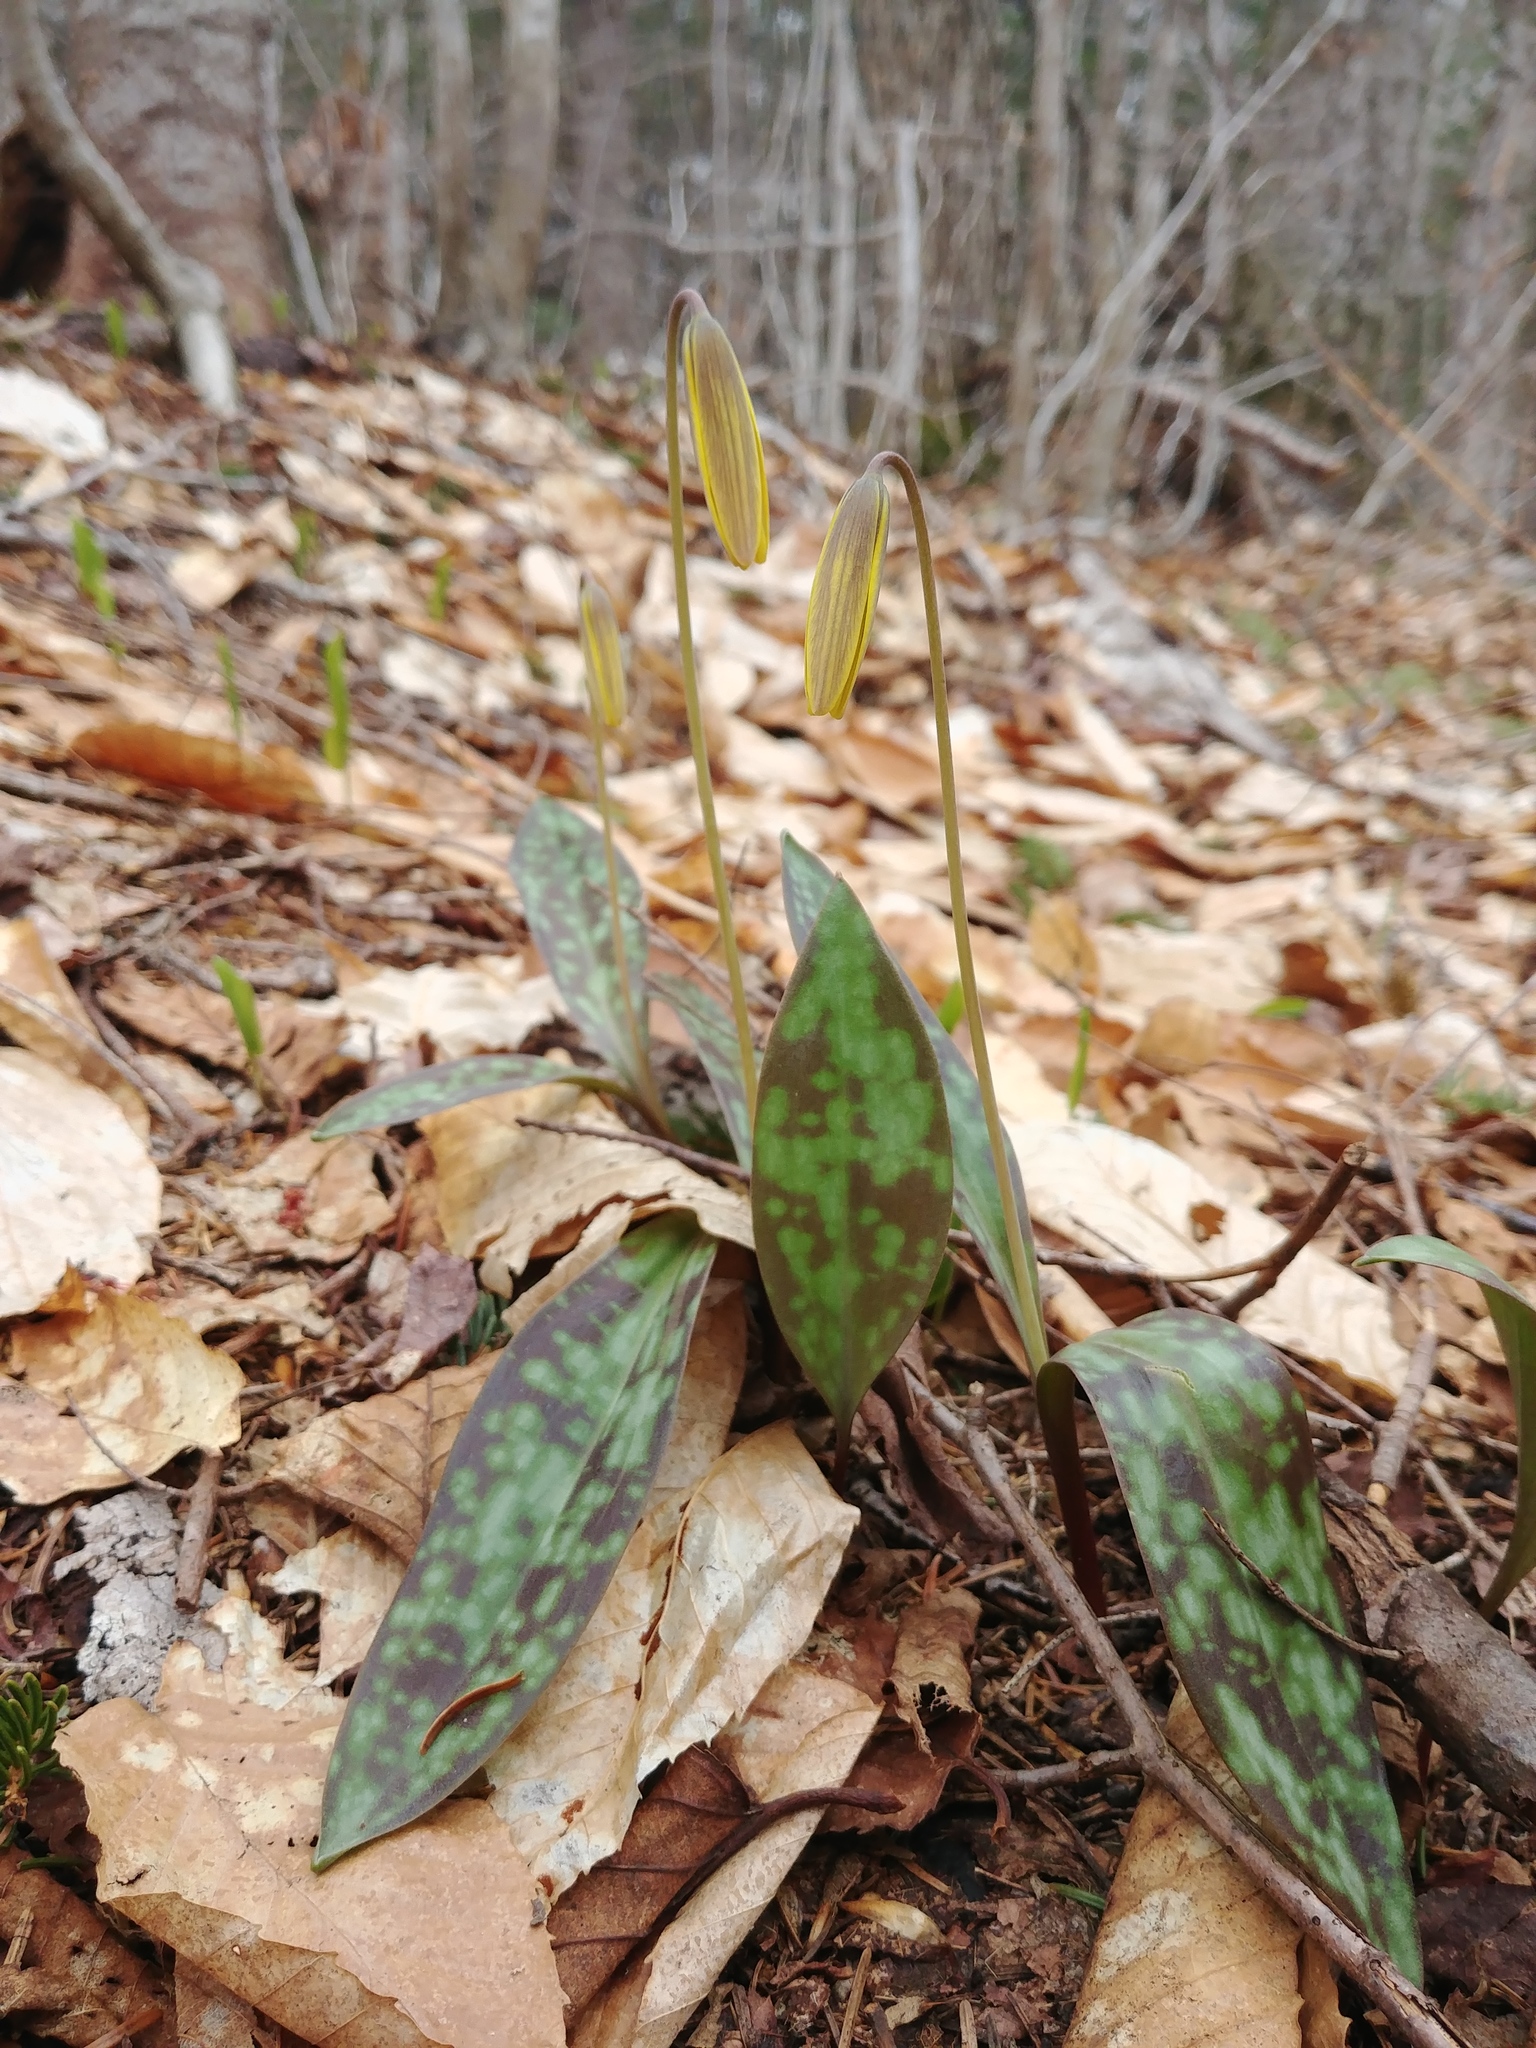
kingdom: Plantae
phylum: Tracheophyta
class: Liliopsida
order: Liliales
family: Liliaceae
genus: Erythronium
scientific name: Erythronium americanum
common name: Yellow adder's-tongue
